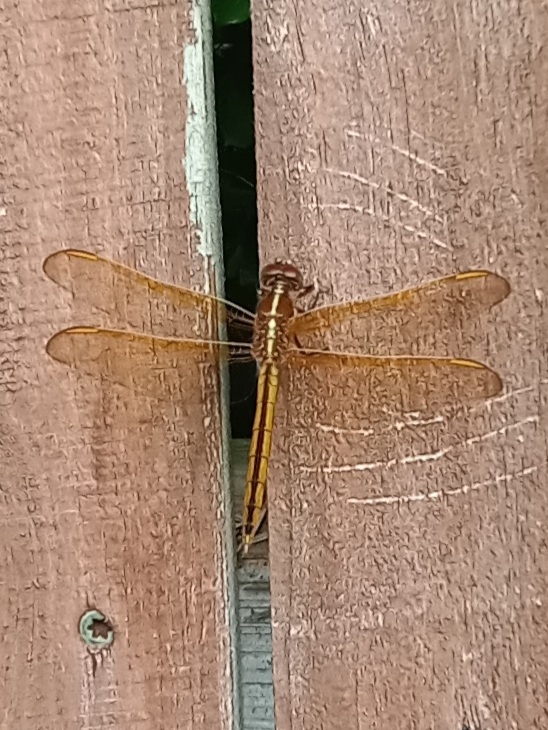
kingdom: Animalia
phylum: Arthropoda
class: Insecta
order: Odonata
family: Libellulidae
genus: Libellula
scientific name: Libellula auripennis
